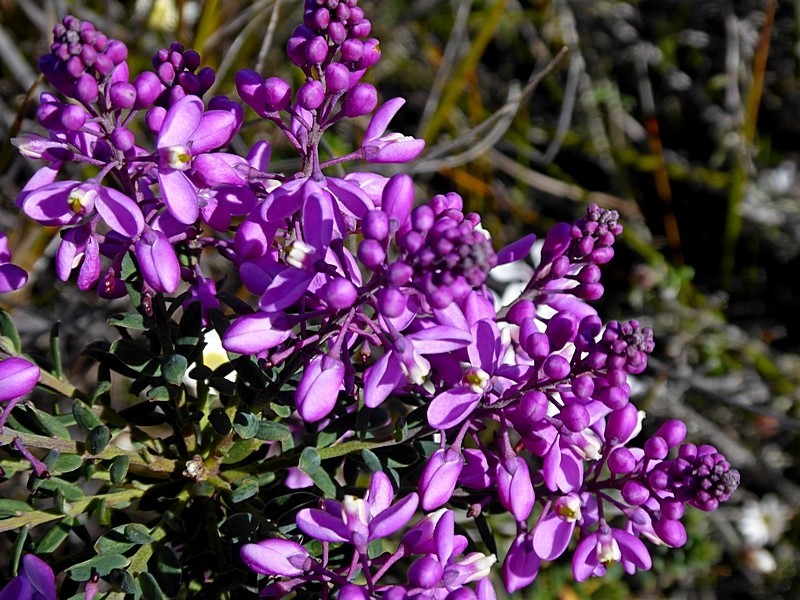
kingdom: Plantae
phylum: Tracheophyta
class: Magnoliopsida
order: Fabales
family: Polygalaceae
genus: Comesperma
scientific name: Comesperma ericinum
